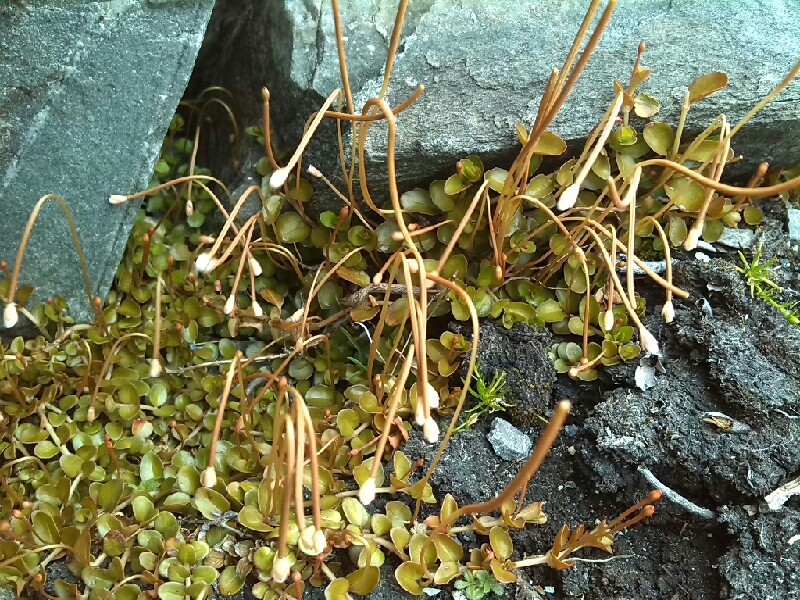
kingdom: Plantae
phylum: Tracheophyta
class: Magnoliopsida
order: Myrtales
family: Onagraceae
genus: Epilobium
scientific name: Epilobium brunnescens
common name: New zealand willowherb
